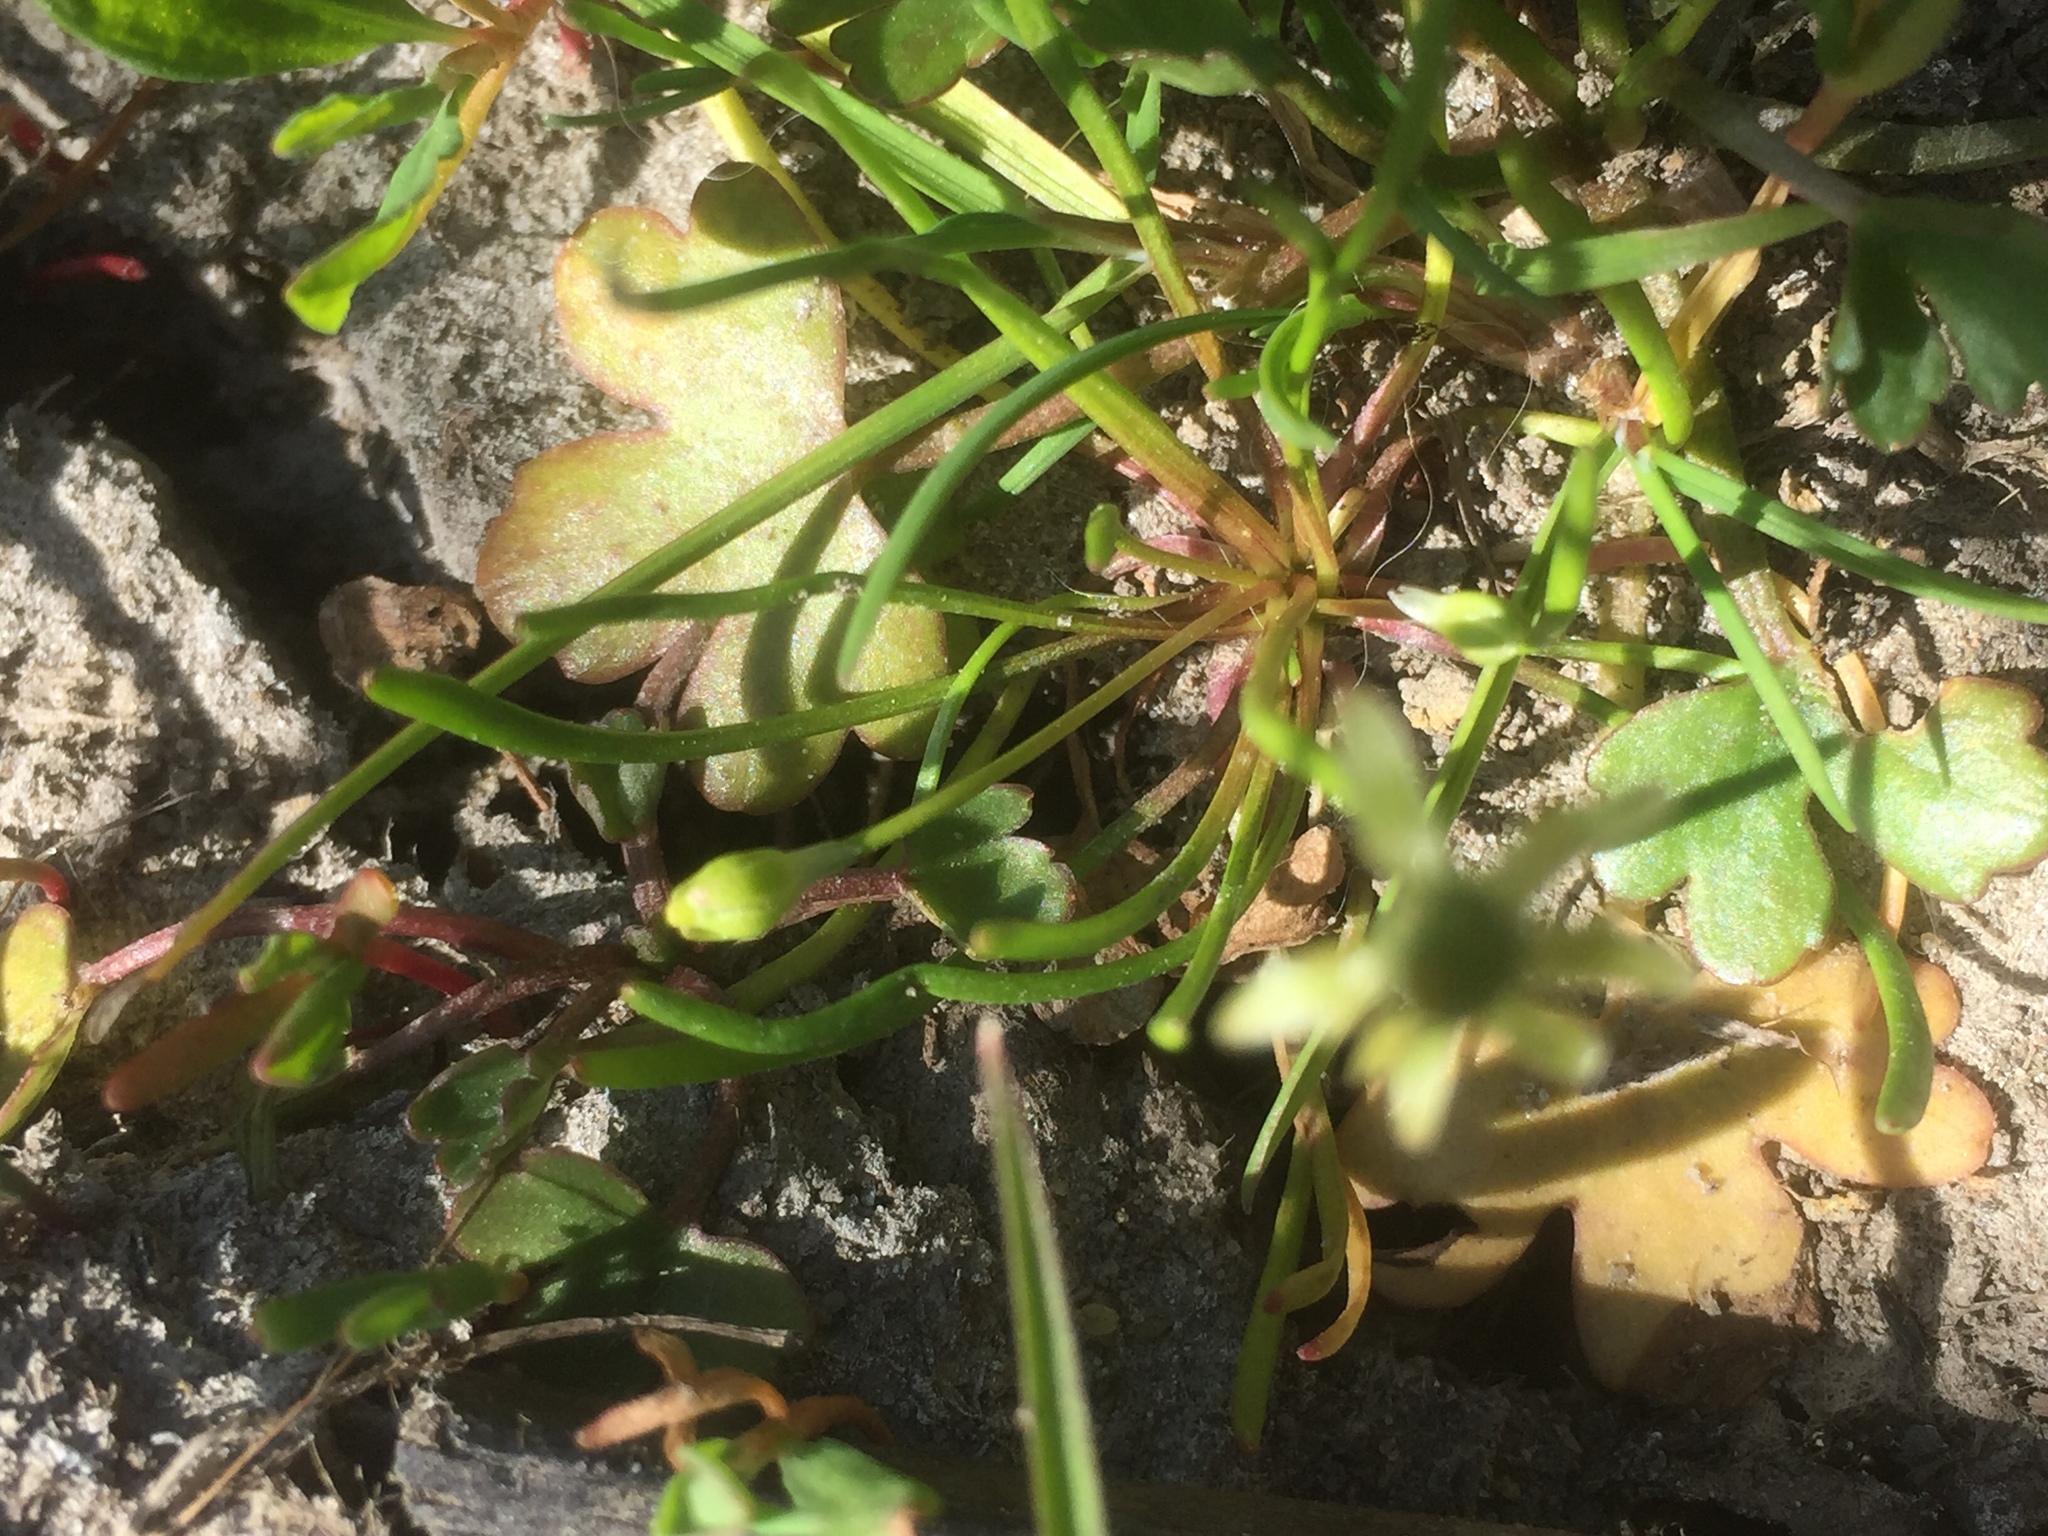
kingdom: Plantae
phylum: Tracheophyta
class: Magnoliopsida
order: Ranunculales
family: Ranunculaceae
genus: Myosurus
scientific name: Myosurus minimus
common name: Mousetail
